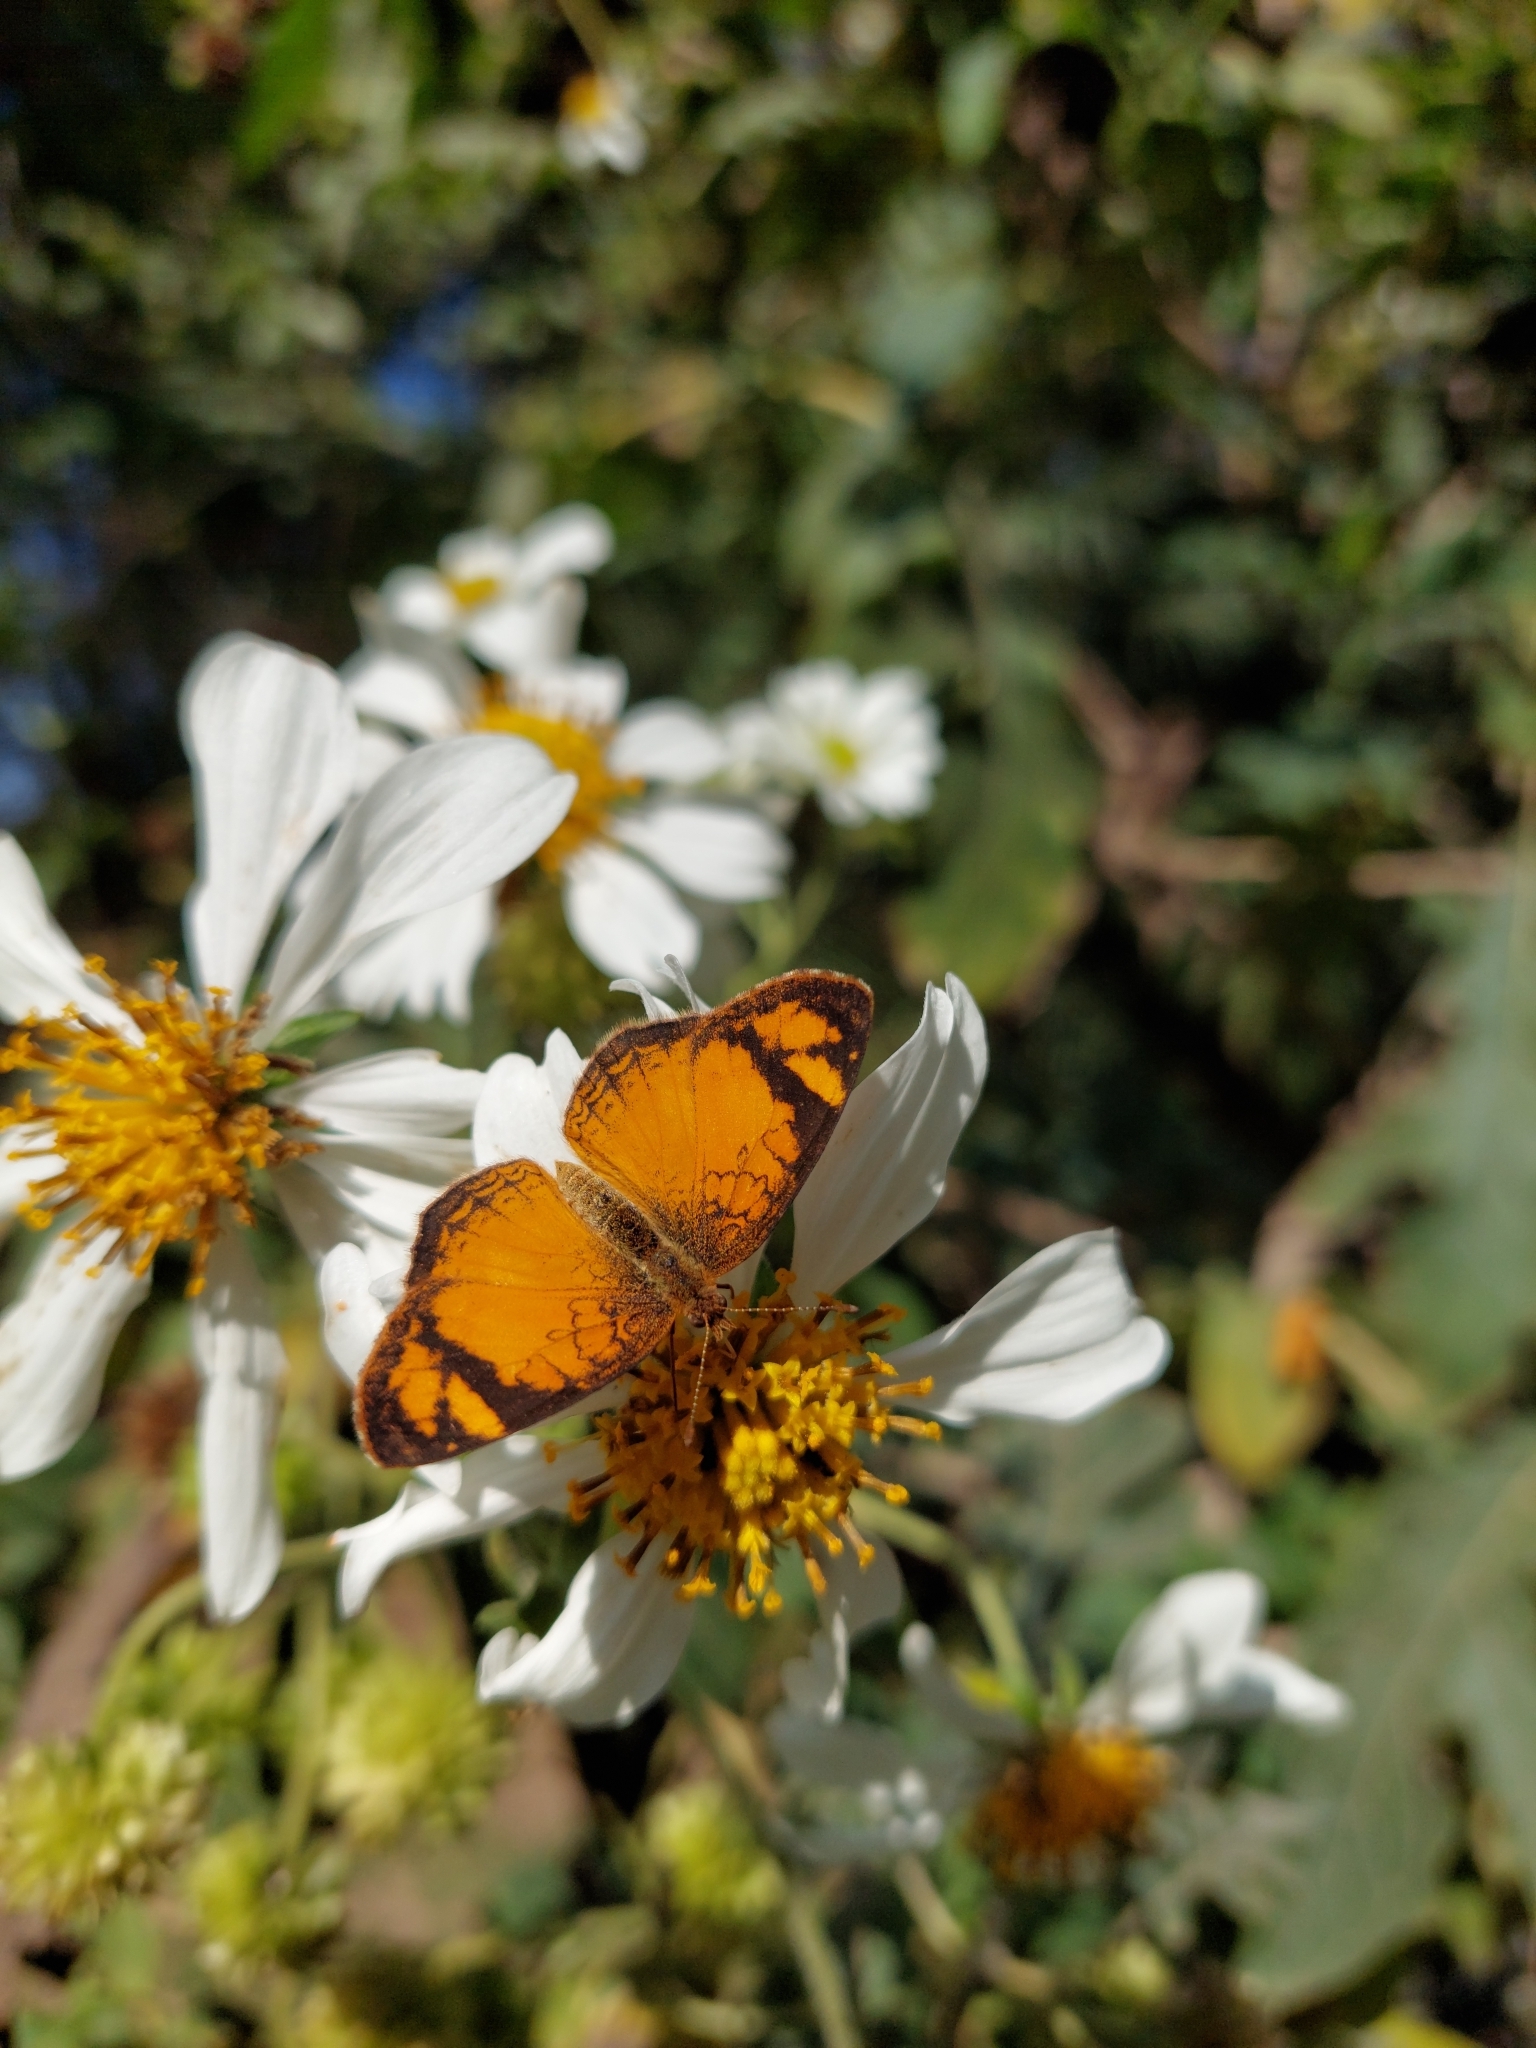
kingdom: Animalia
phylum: Arthropoda
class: Insecta
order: Lepidoptera
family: Nymphalidae
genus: Tegosa
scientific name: Tegosa claudina
